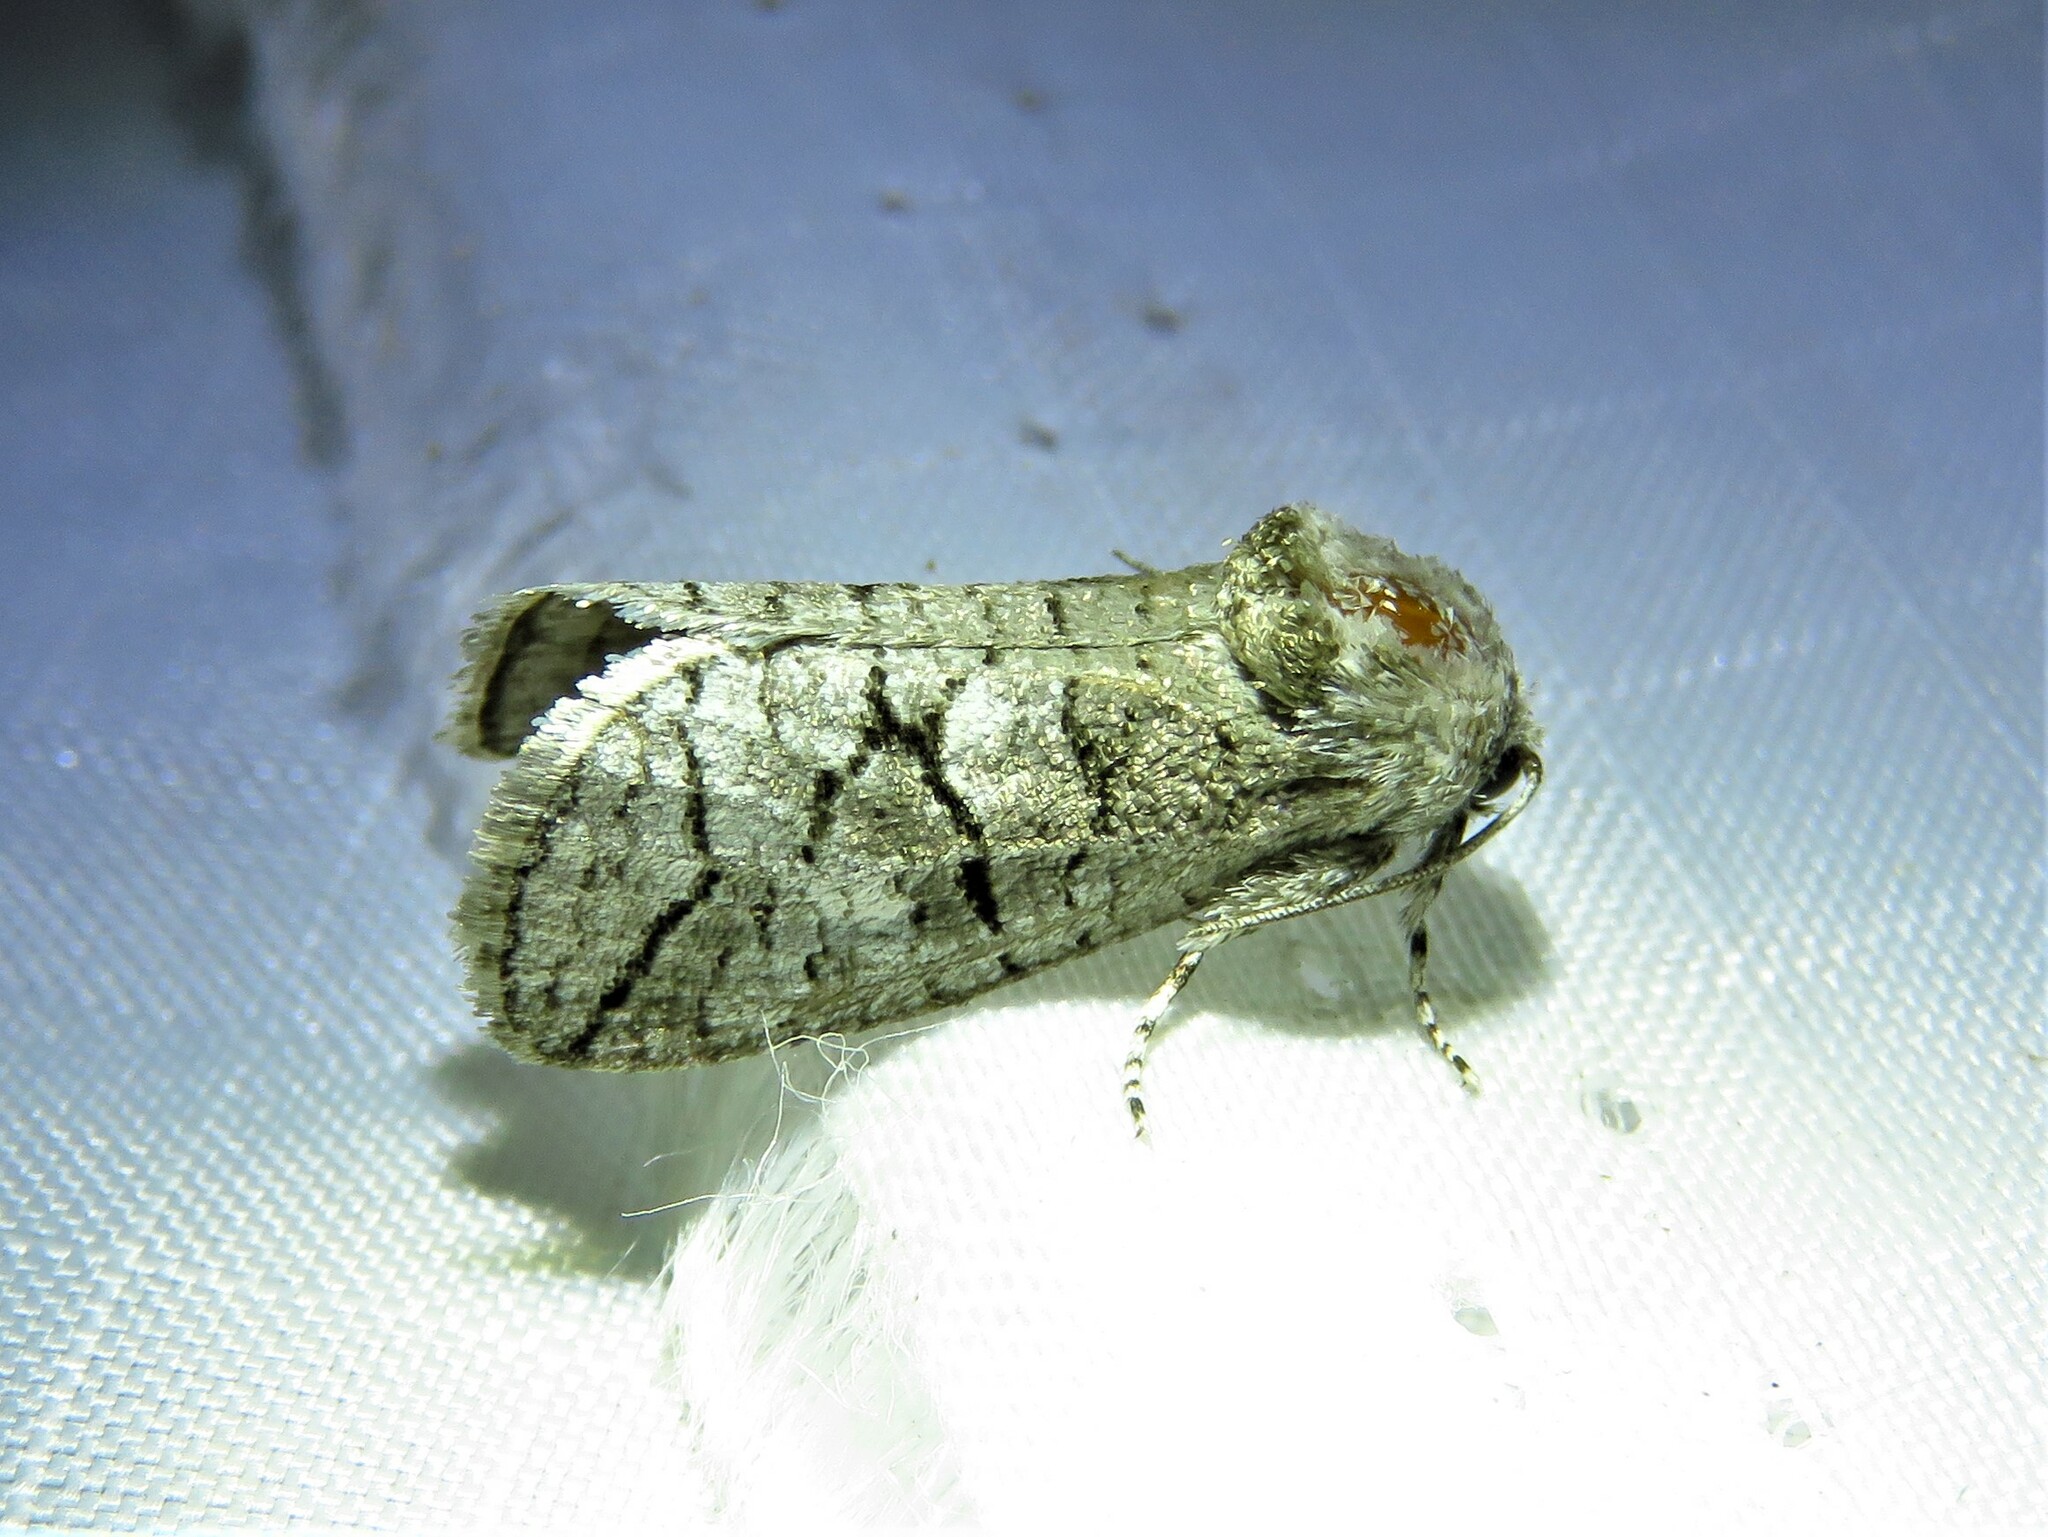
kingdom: Animalia
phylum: Arthropoda
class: Insecta
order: Lepidoptera
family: Cossidae
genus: Fania
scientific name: Fania nanus
